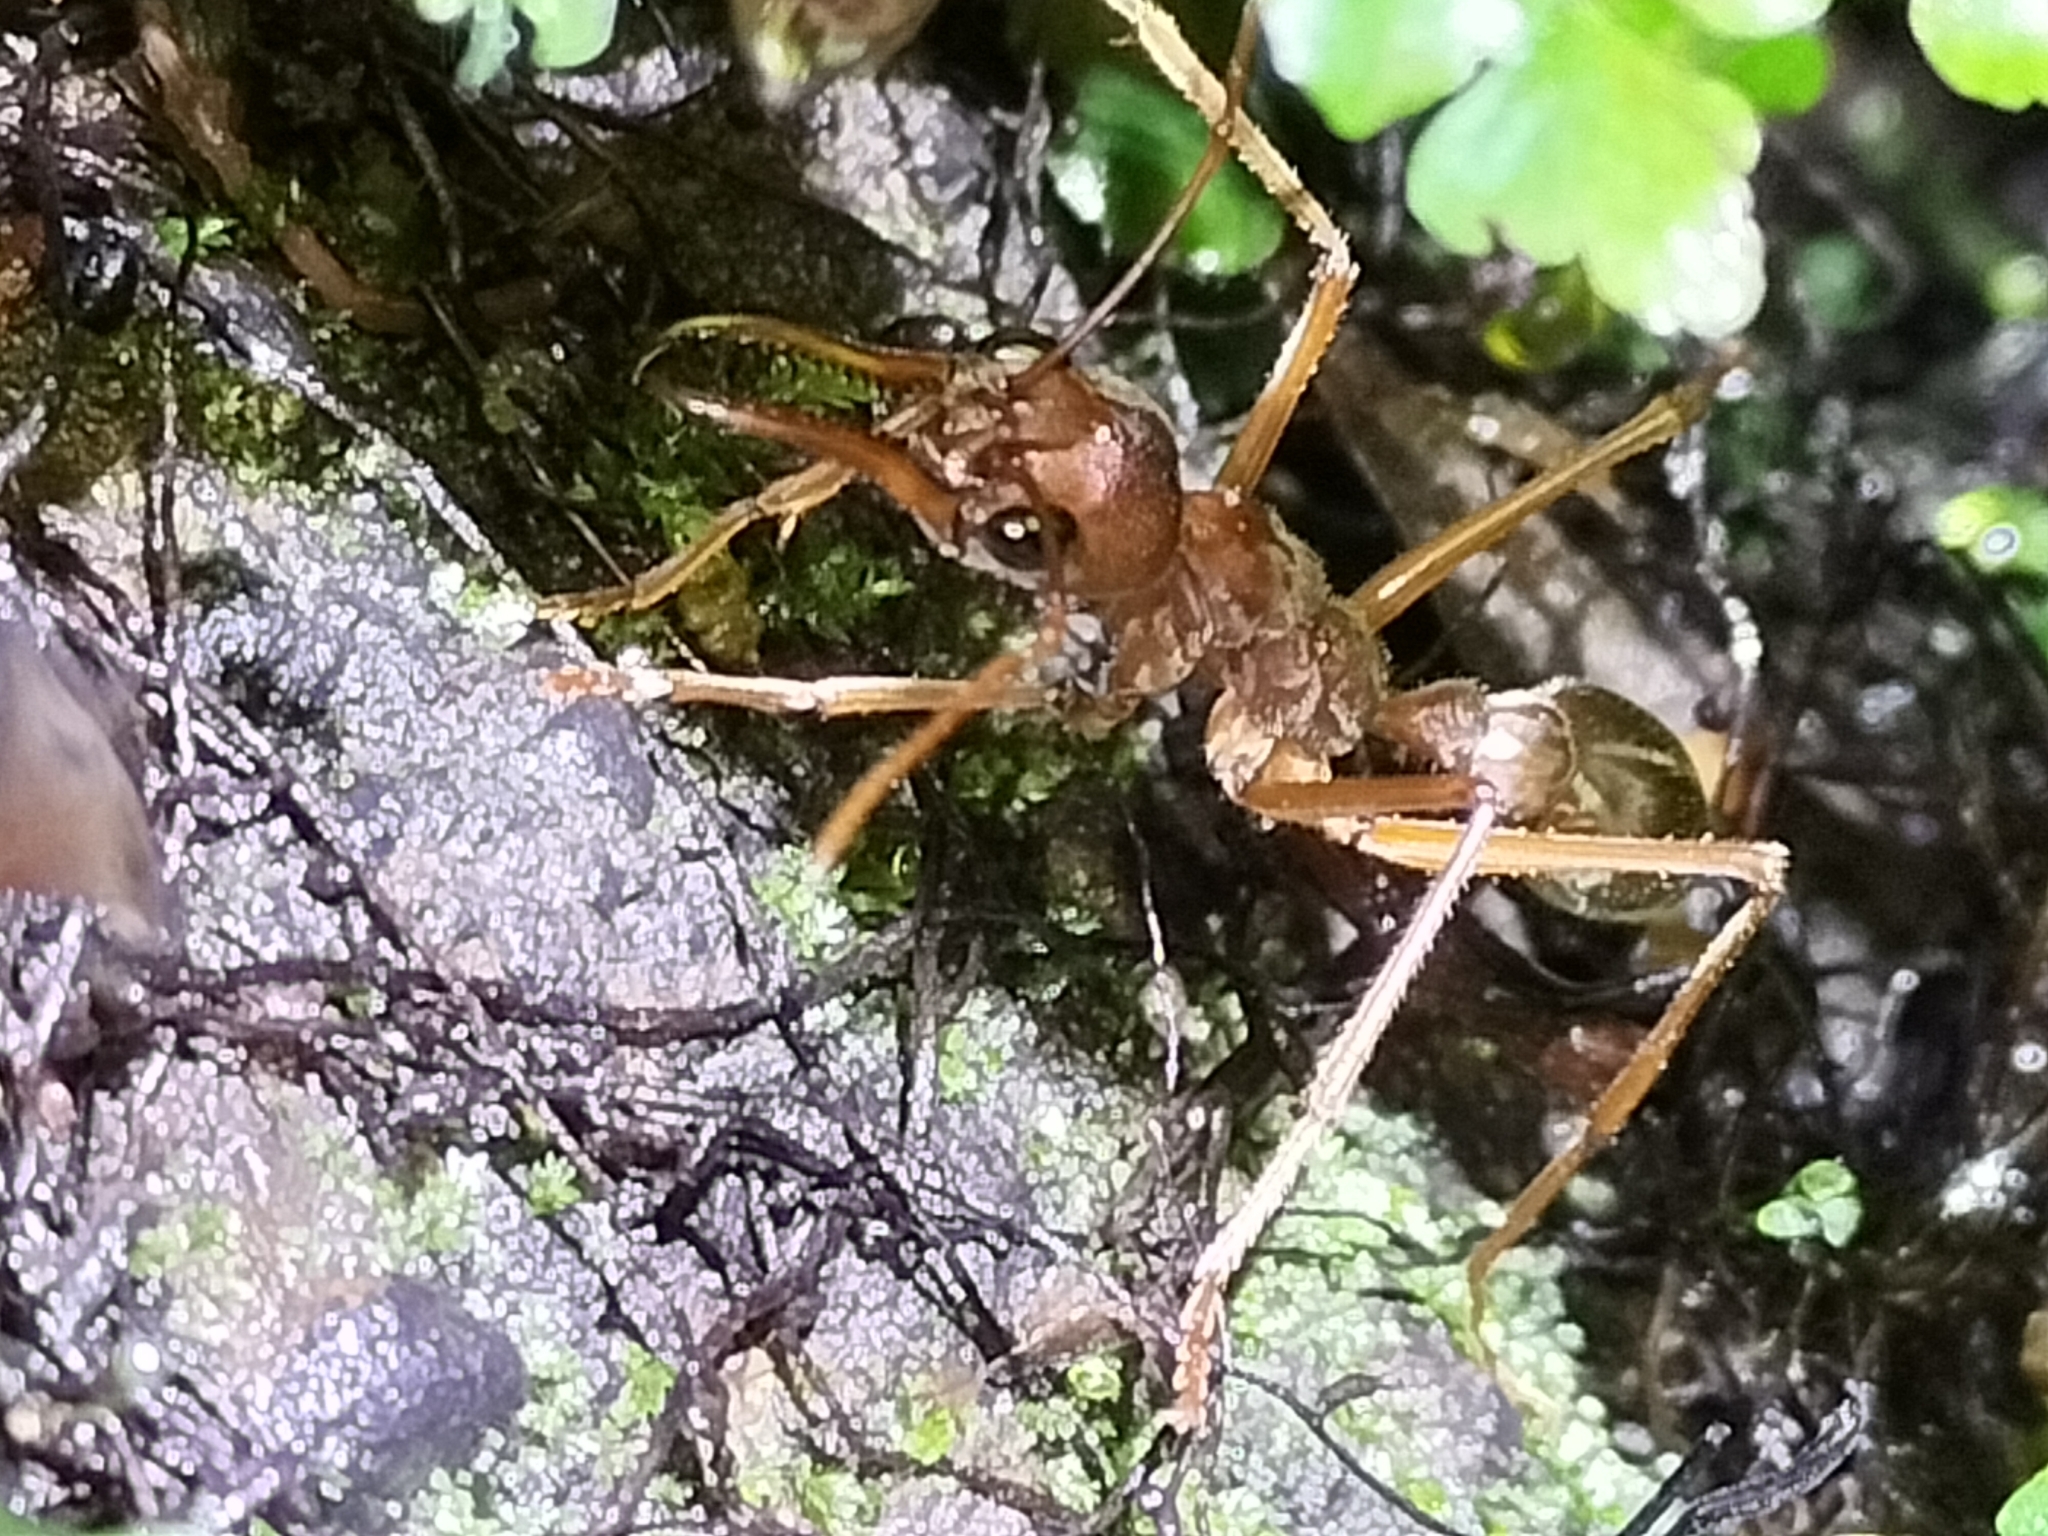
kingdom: Animalia
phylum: Arthropoda
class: Insecta
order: Hymenoptera
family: Formicidae
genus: Myrmecia
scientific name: Myrmecia mjobergi
